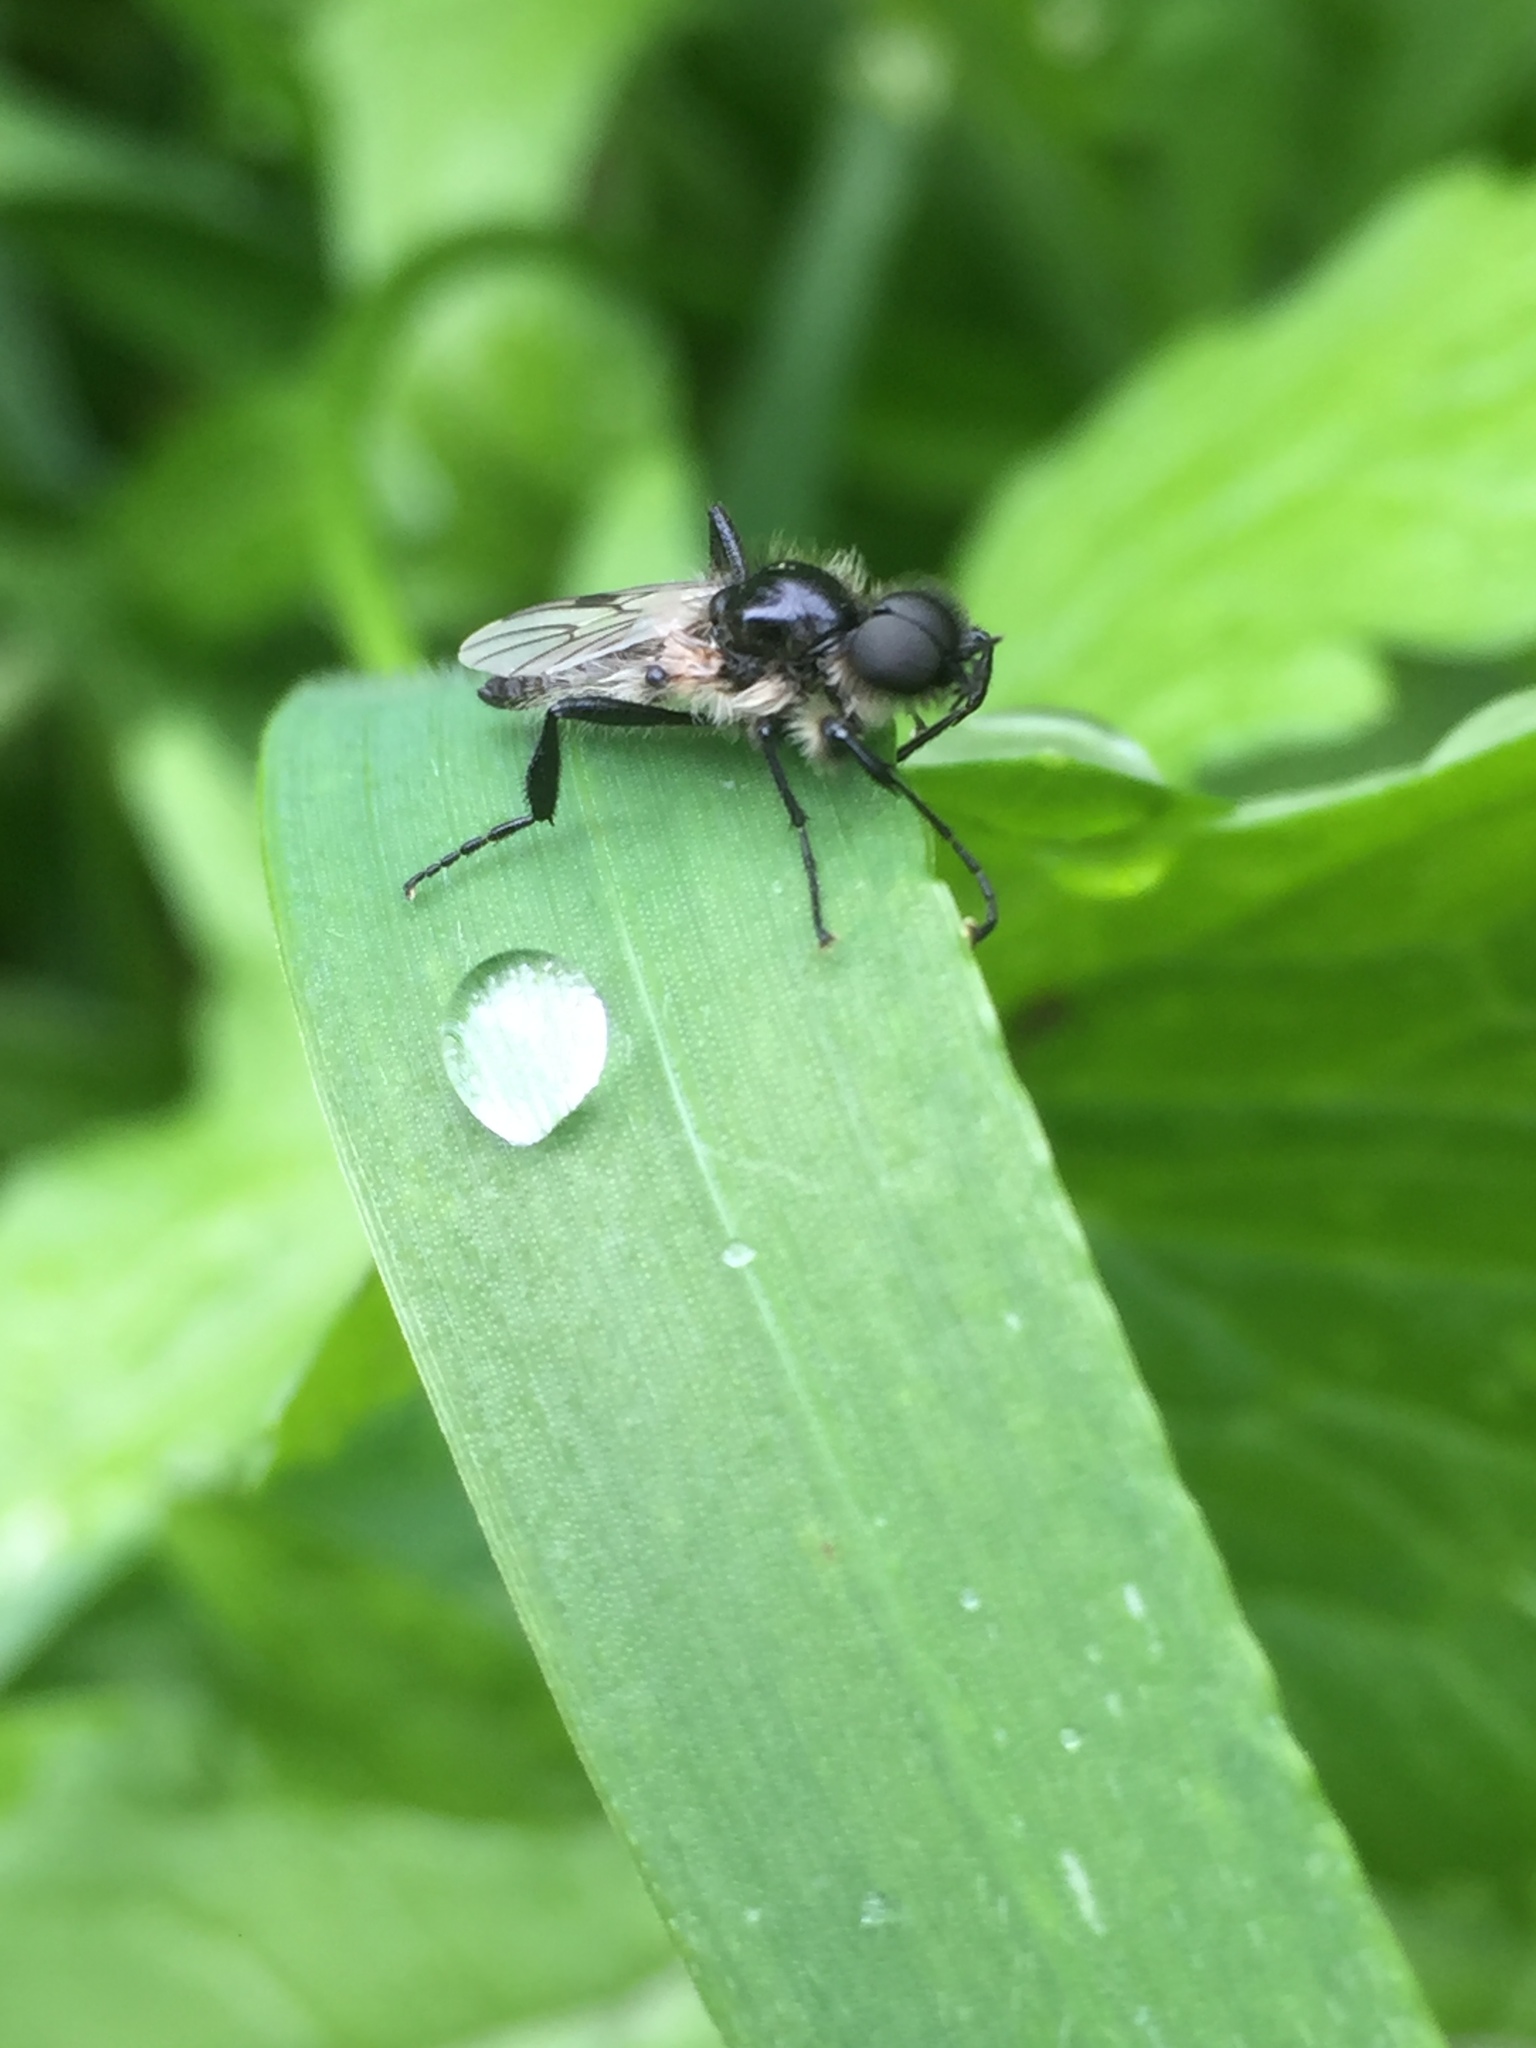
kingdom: Animalia
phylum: Arthropoda
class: Insecta
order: Diptera
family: Bibionidae
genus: Bibio
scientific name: Bibio albipennis
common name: White-winged march fly
